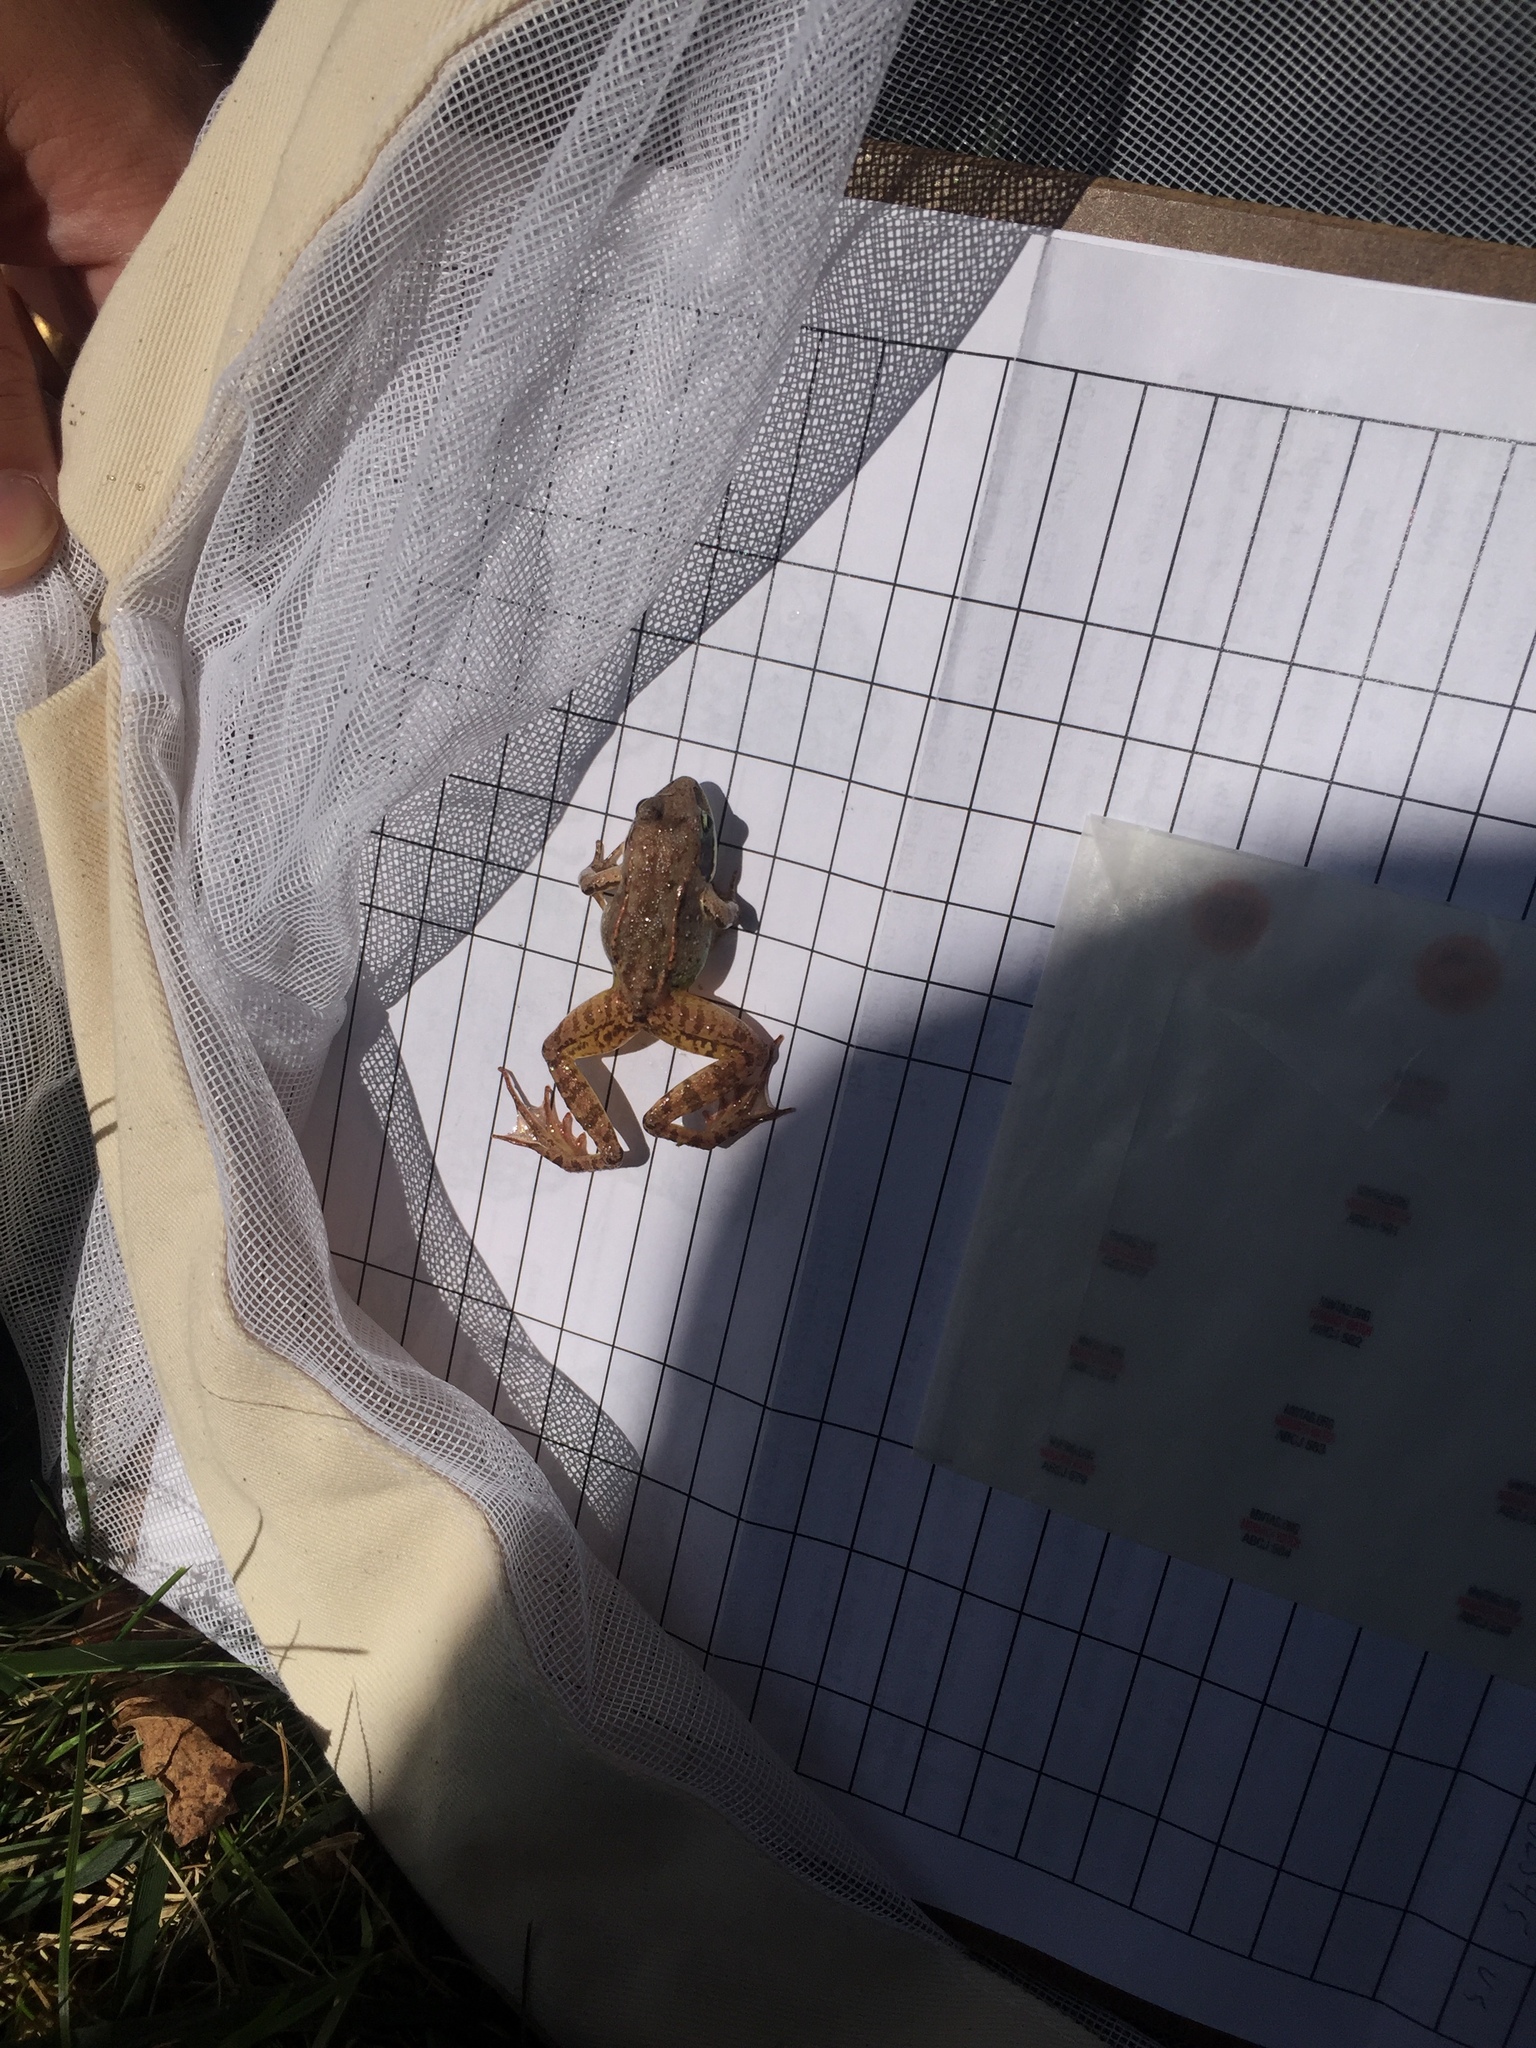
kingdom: Animalia
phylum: Chordata
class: Amphibia
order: Anura
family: Ranidae
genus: Lithobates
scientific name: Lithobates sylvaticus
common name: Wood frog
